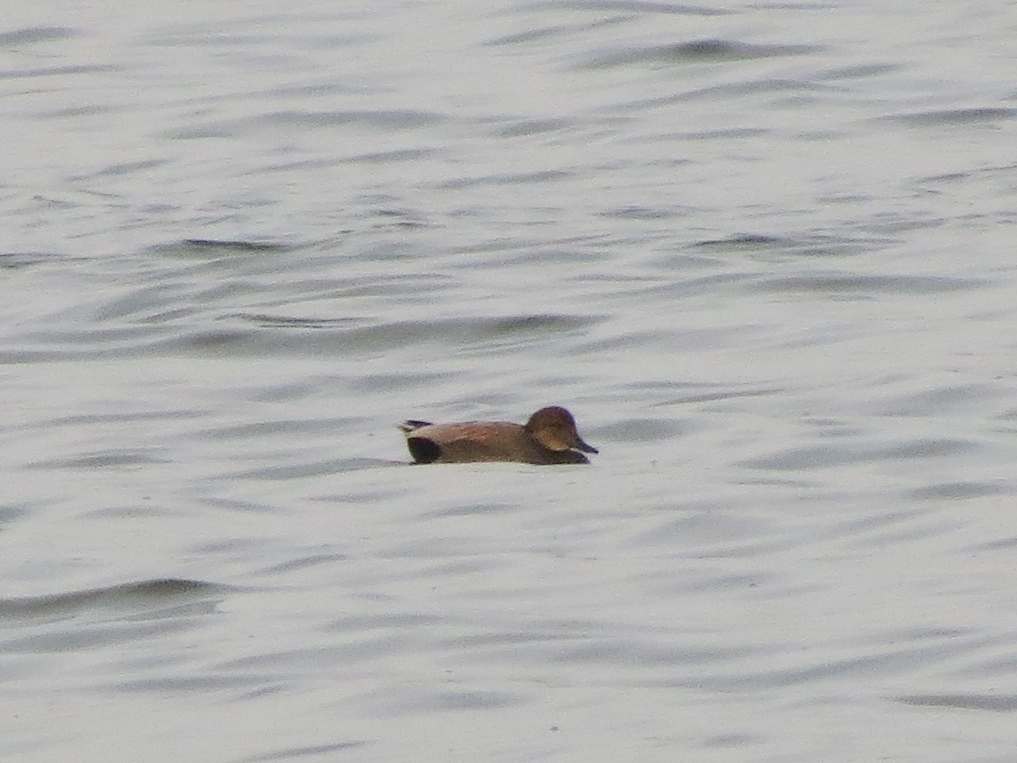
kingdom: Animalia
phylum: Chordata
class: Aves
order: Anseriformes
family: Anatidae
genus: Mareca
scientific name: Mareca strepera
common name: Gadwall
